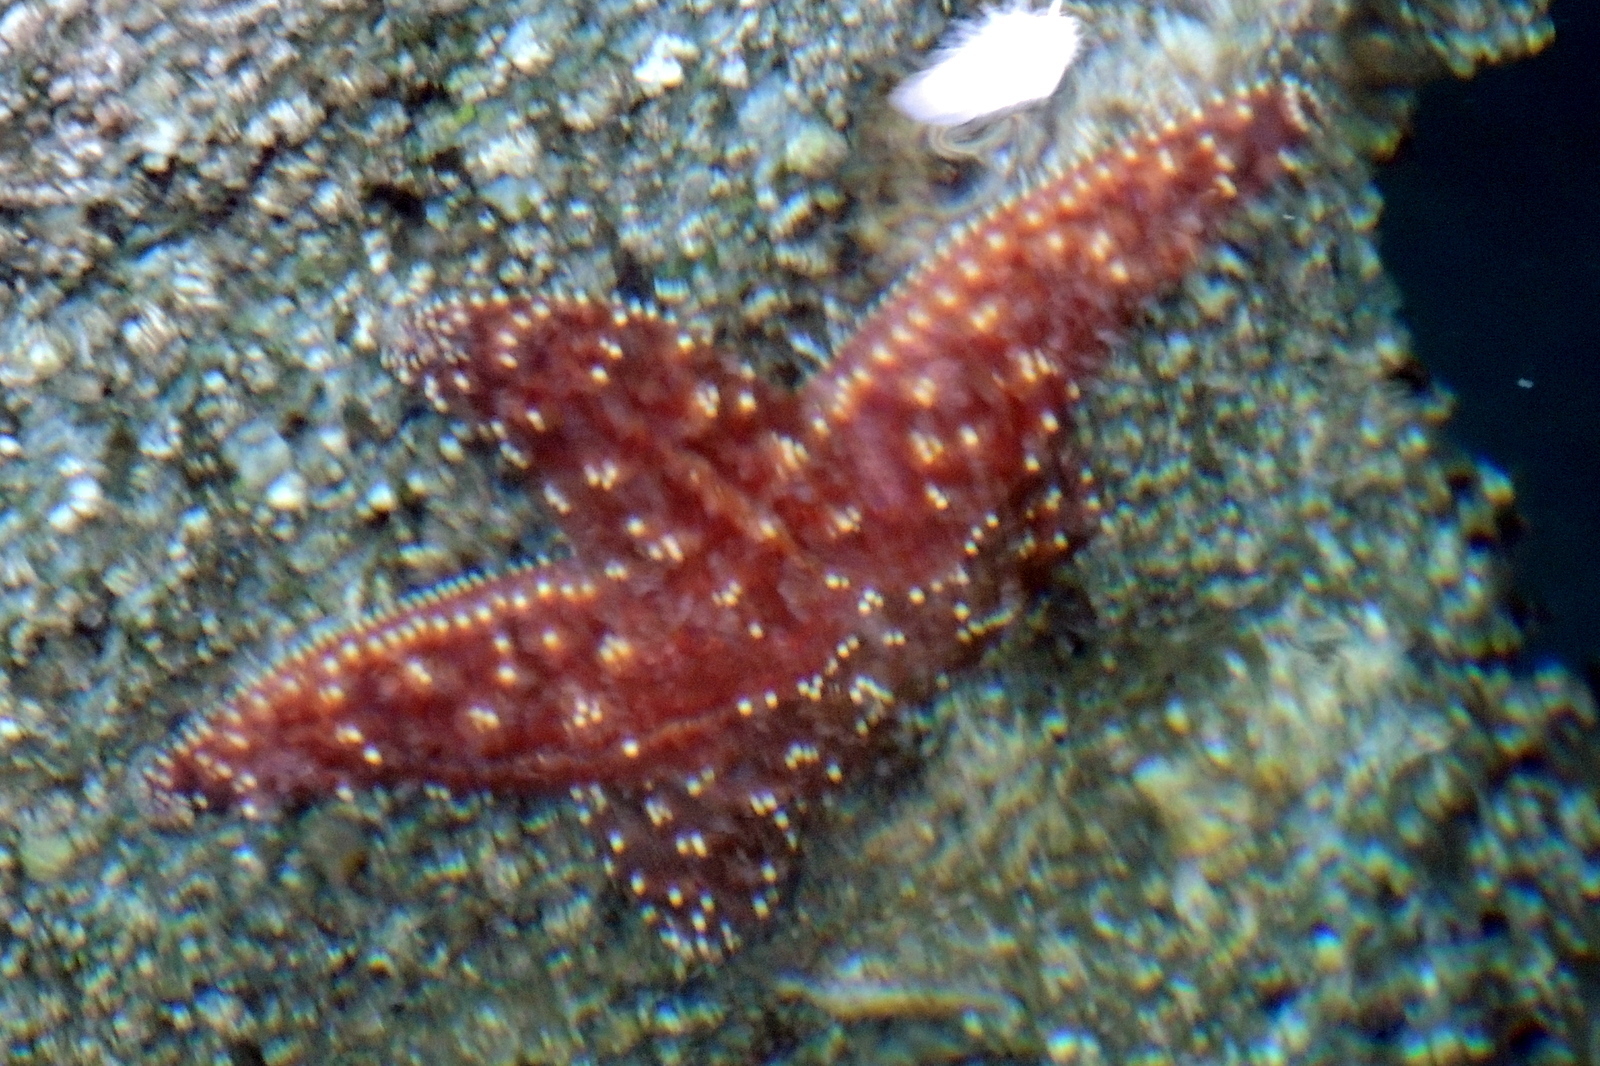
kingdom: Animalia
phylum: Echinodermata
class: Asteroidea
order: Forcipulatida
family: Asteriidae
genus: Pisaster
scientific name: Pisaster ochraceus
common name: Ochre stars
